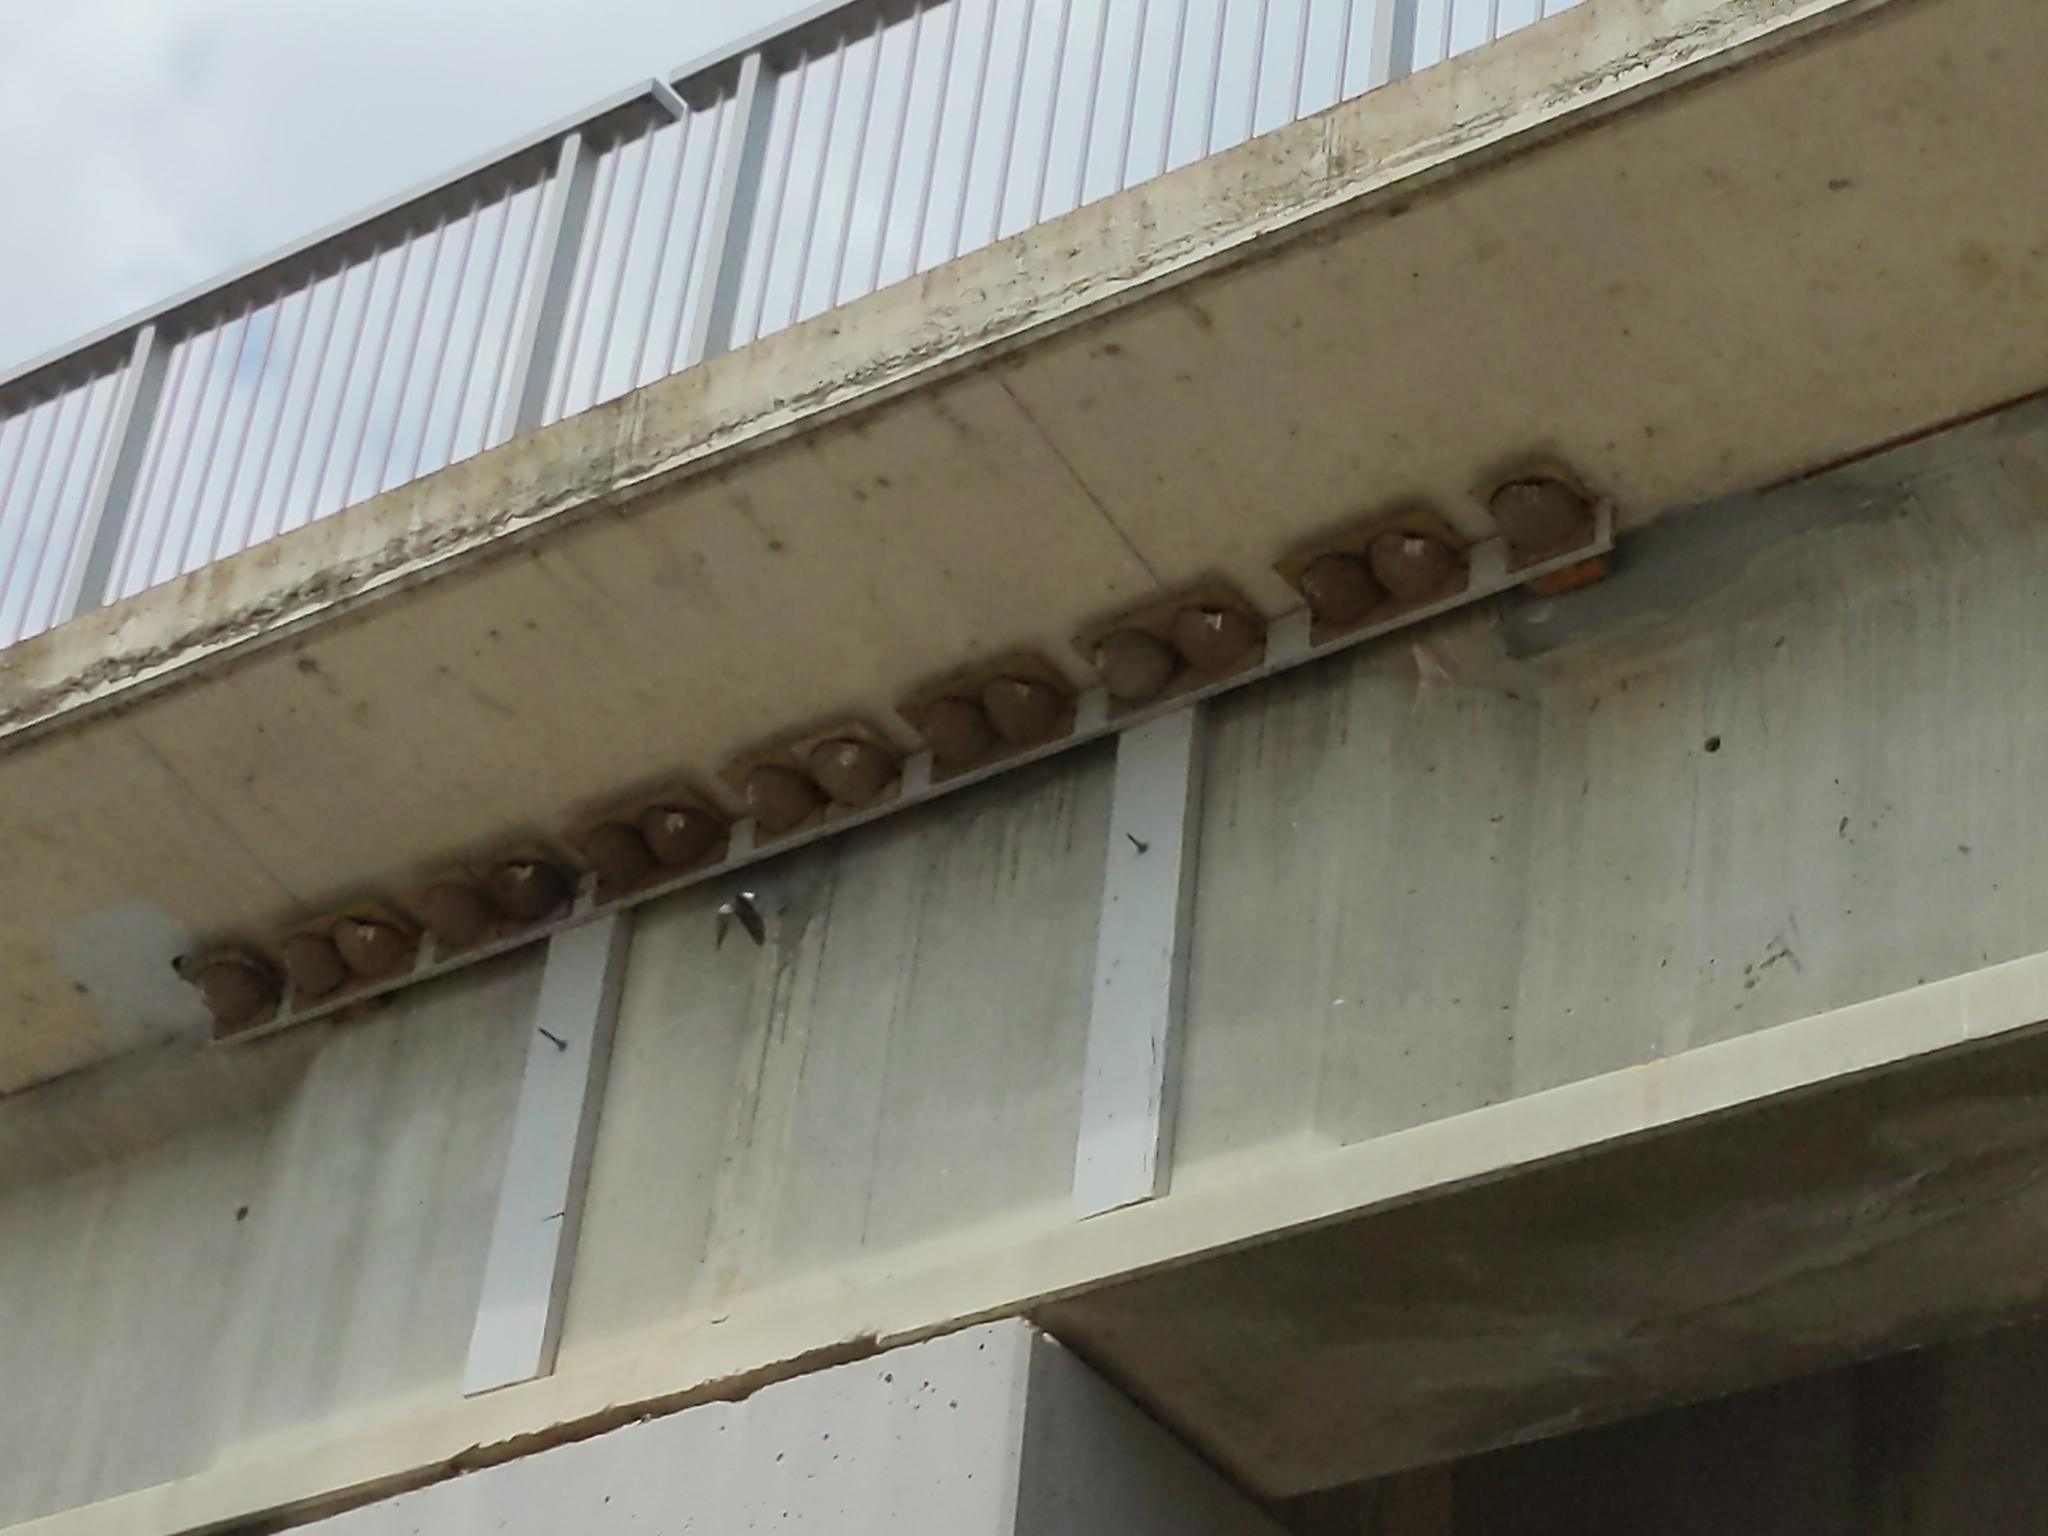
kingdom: Animalia
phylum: Chordata
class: Aves
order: Passeriformes
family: Hirundinidae
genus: Delichon
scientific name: Delichon urbicum
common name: Common house martin
